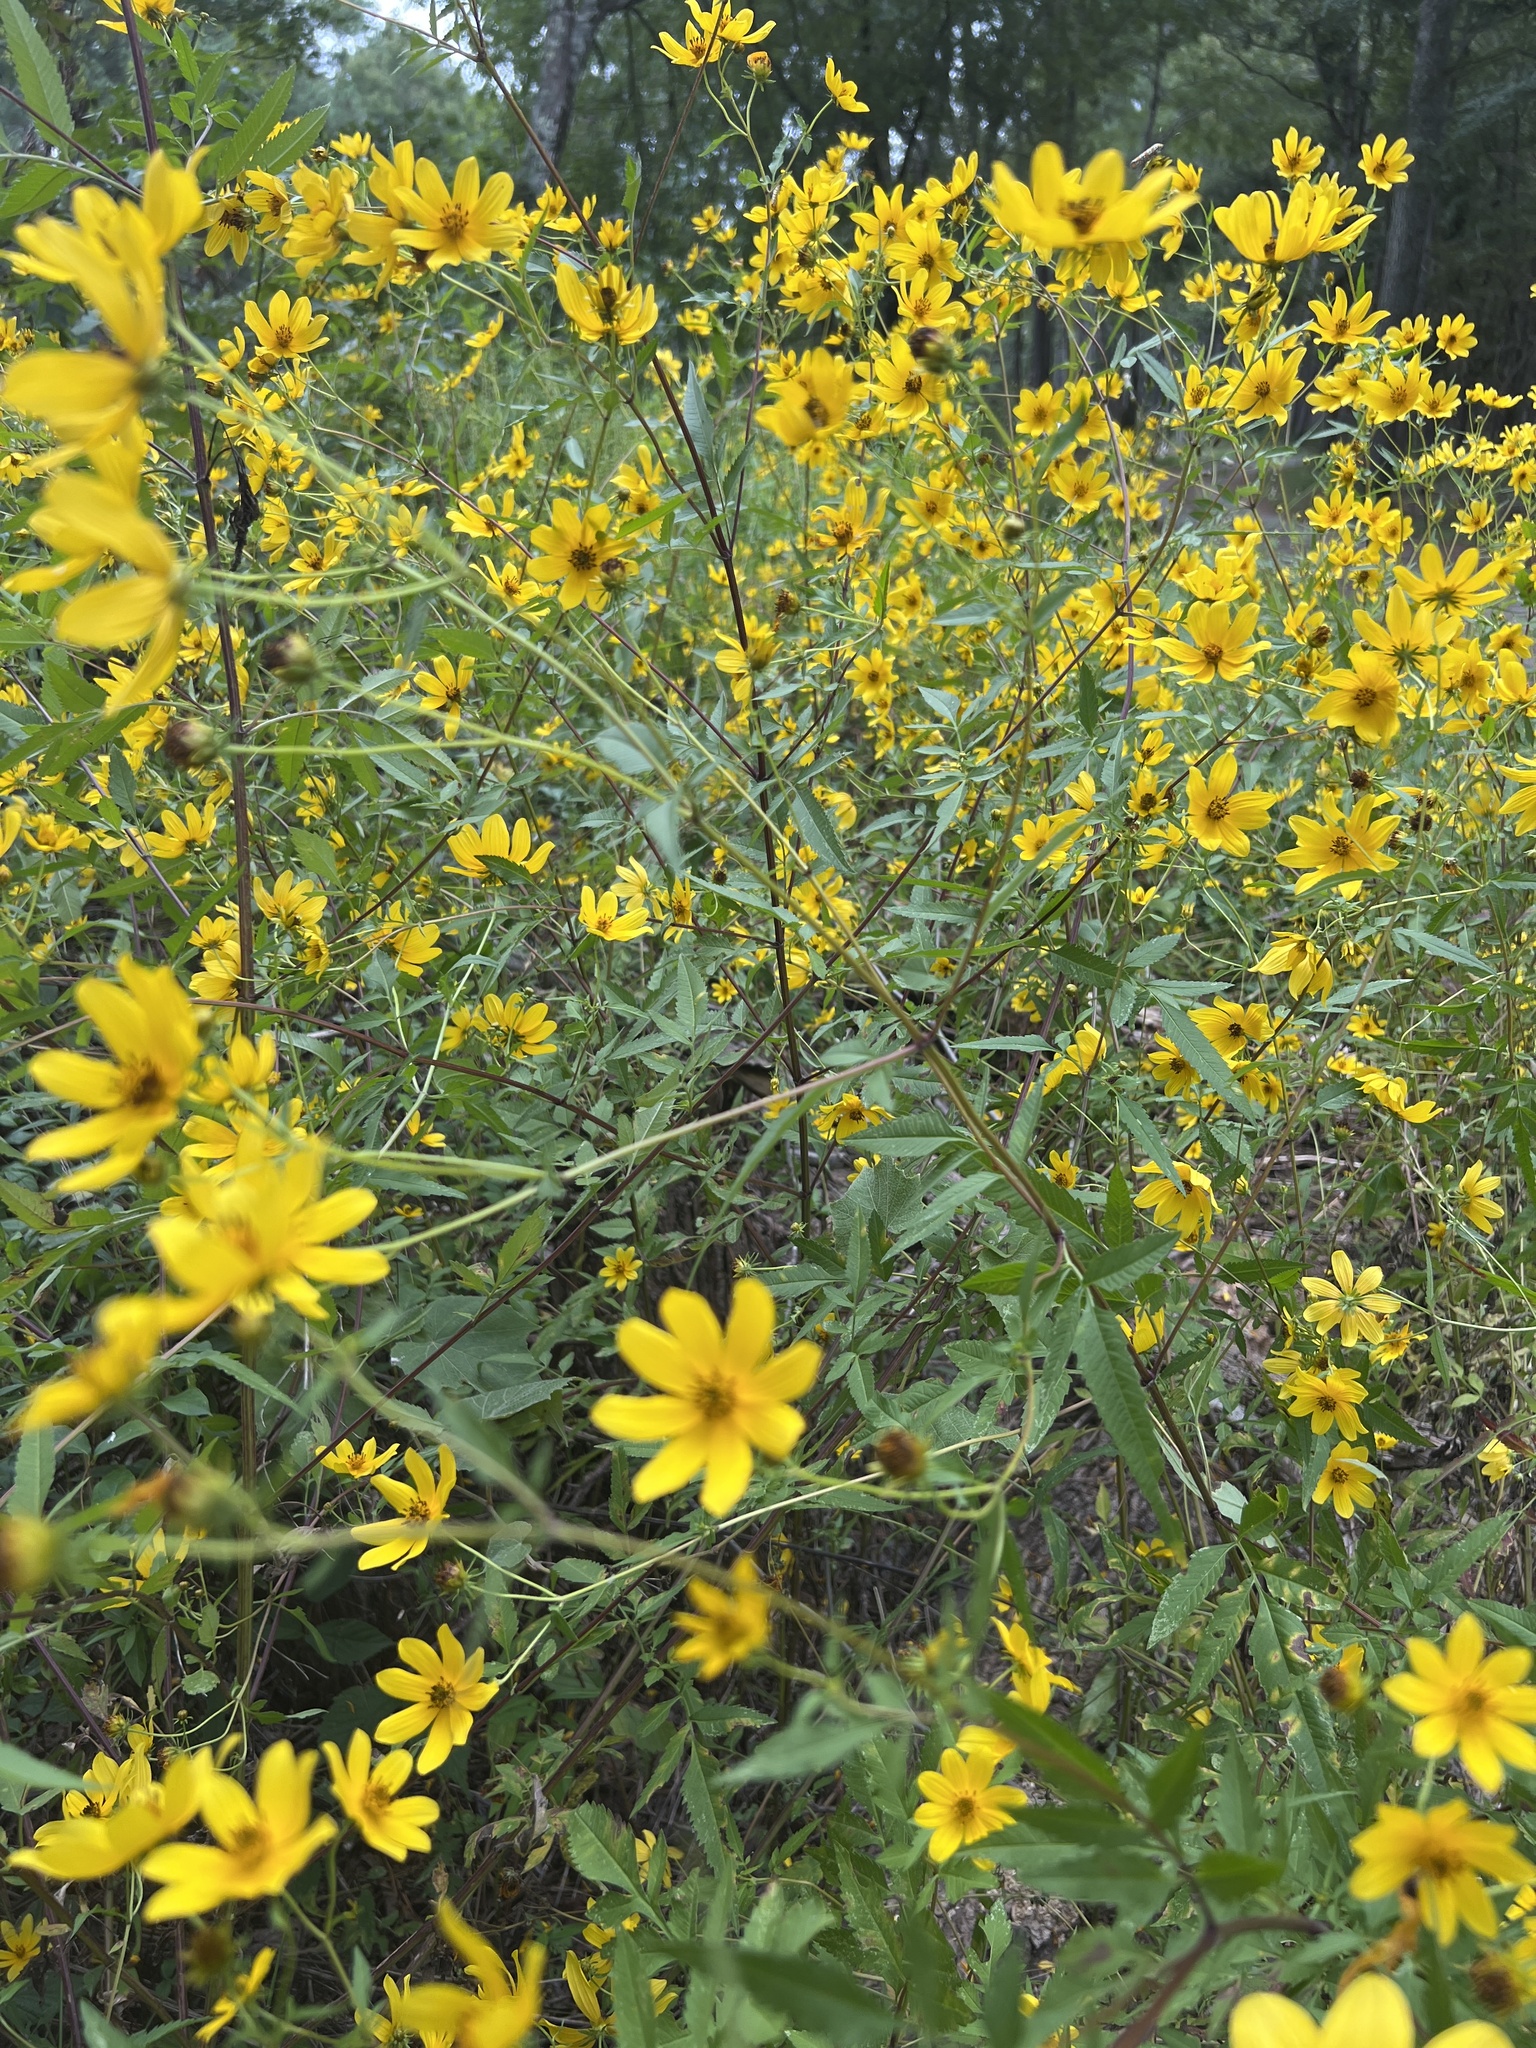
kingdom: Plantae
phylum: Tracheophyta
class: Magnoliopsida
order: Asterales
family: Asteraceae
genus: Bidens
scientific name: Bidens polylepis
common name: Awnless beggarticks
